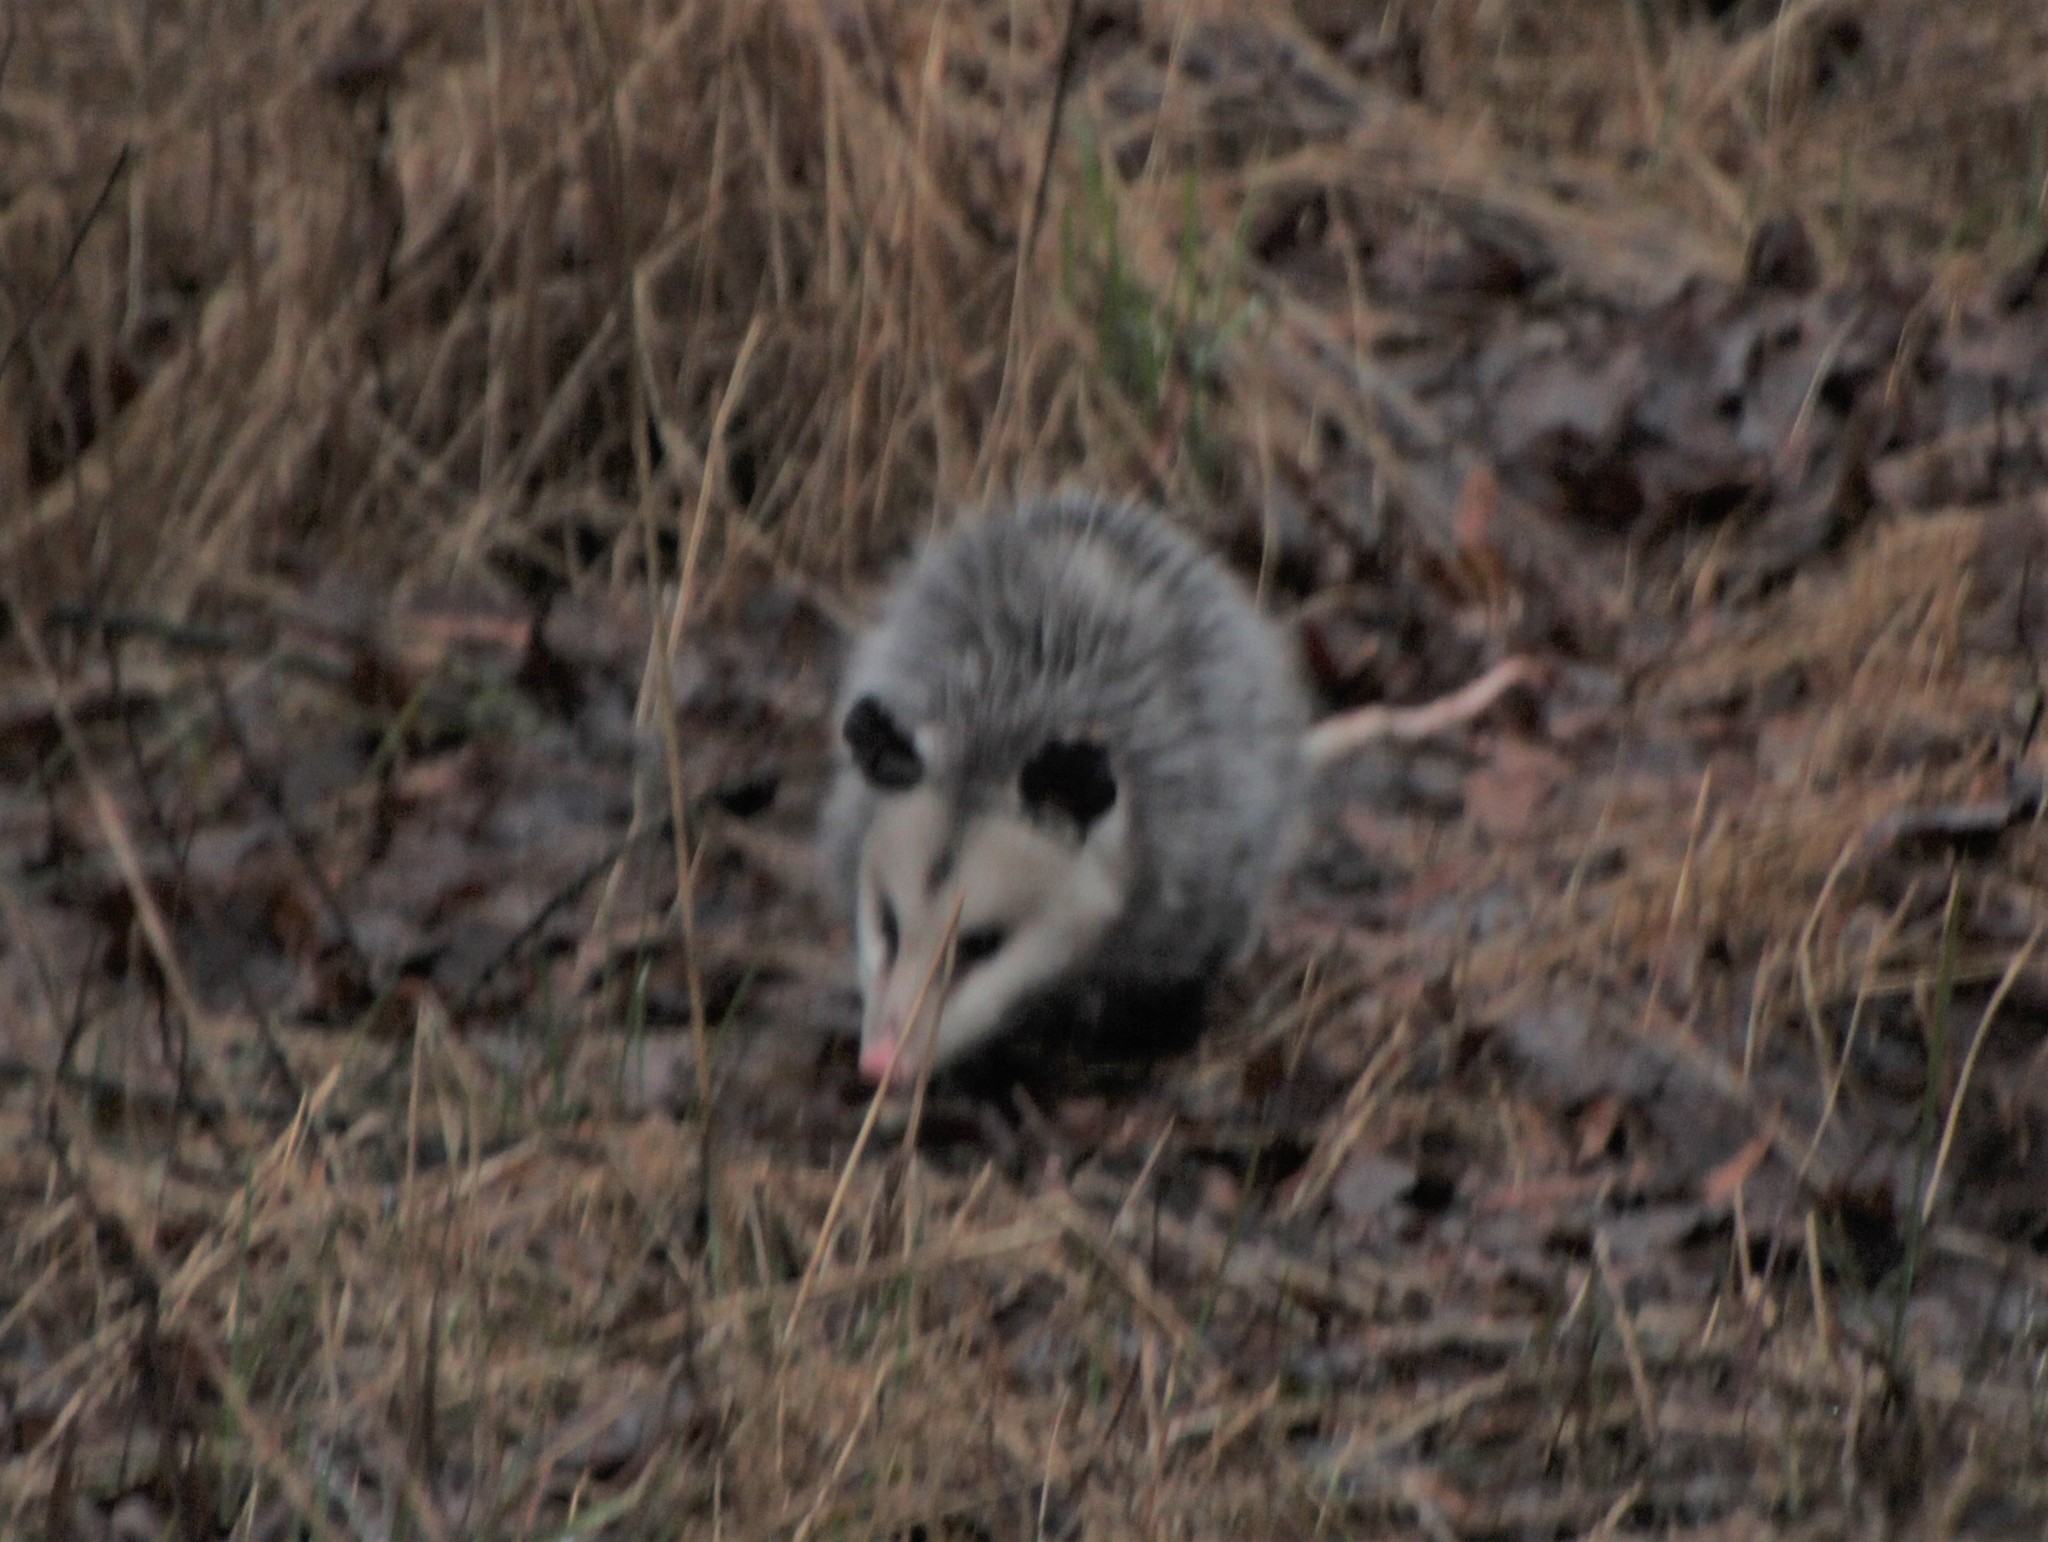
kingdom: Animalia
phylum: Chordata
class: Mammalia
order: Didelphimorphia
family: Didelphidae
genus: Didelphis
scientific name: Didelphis virginiana
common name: Virginia opossum
